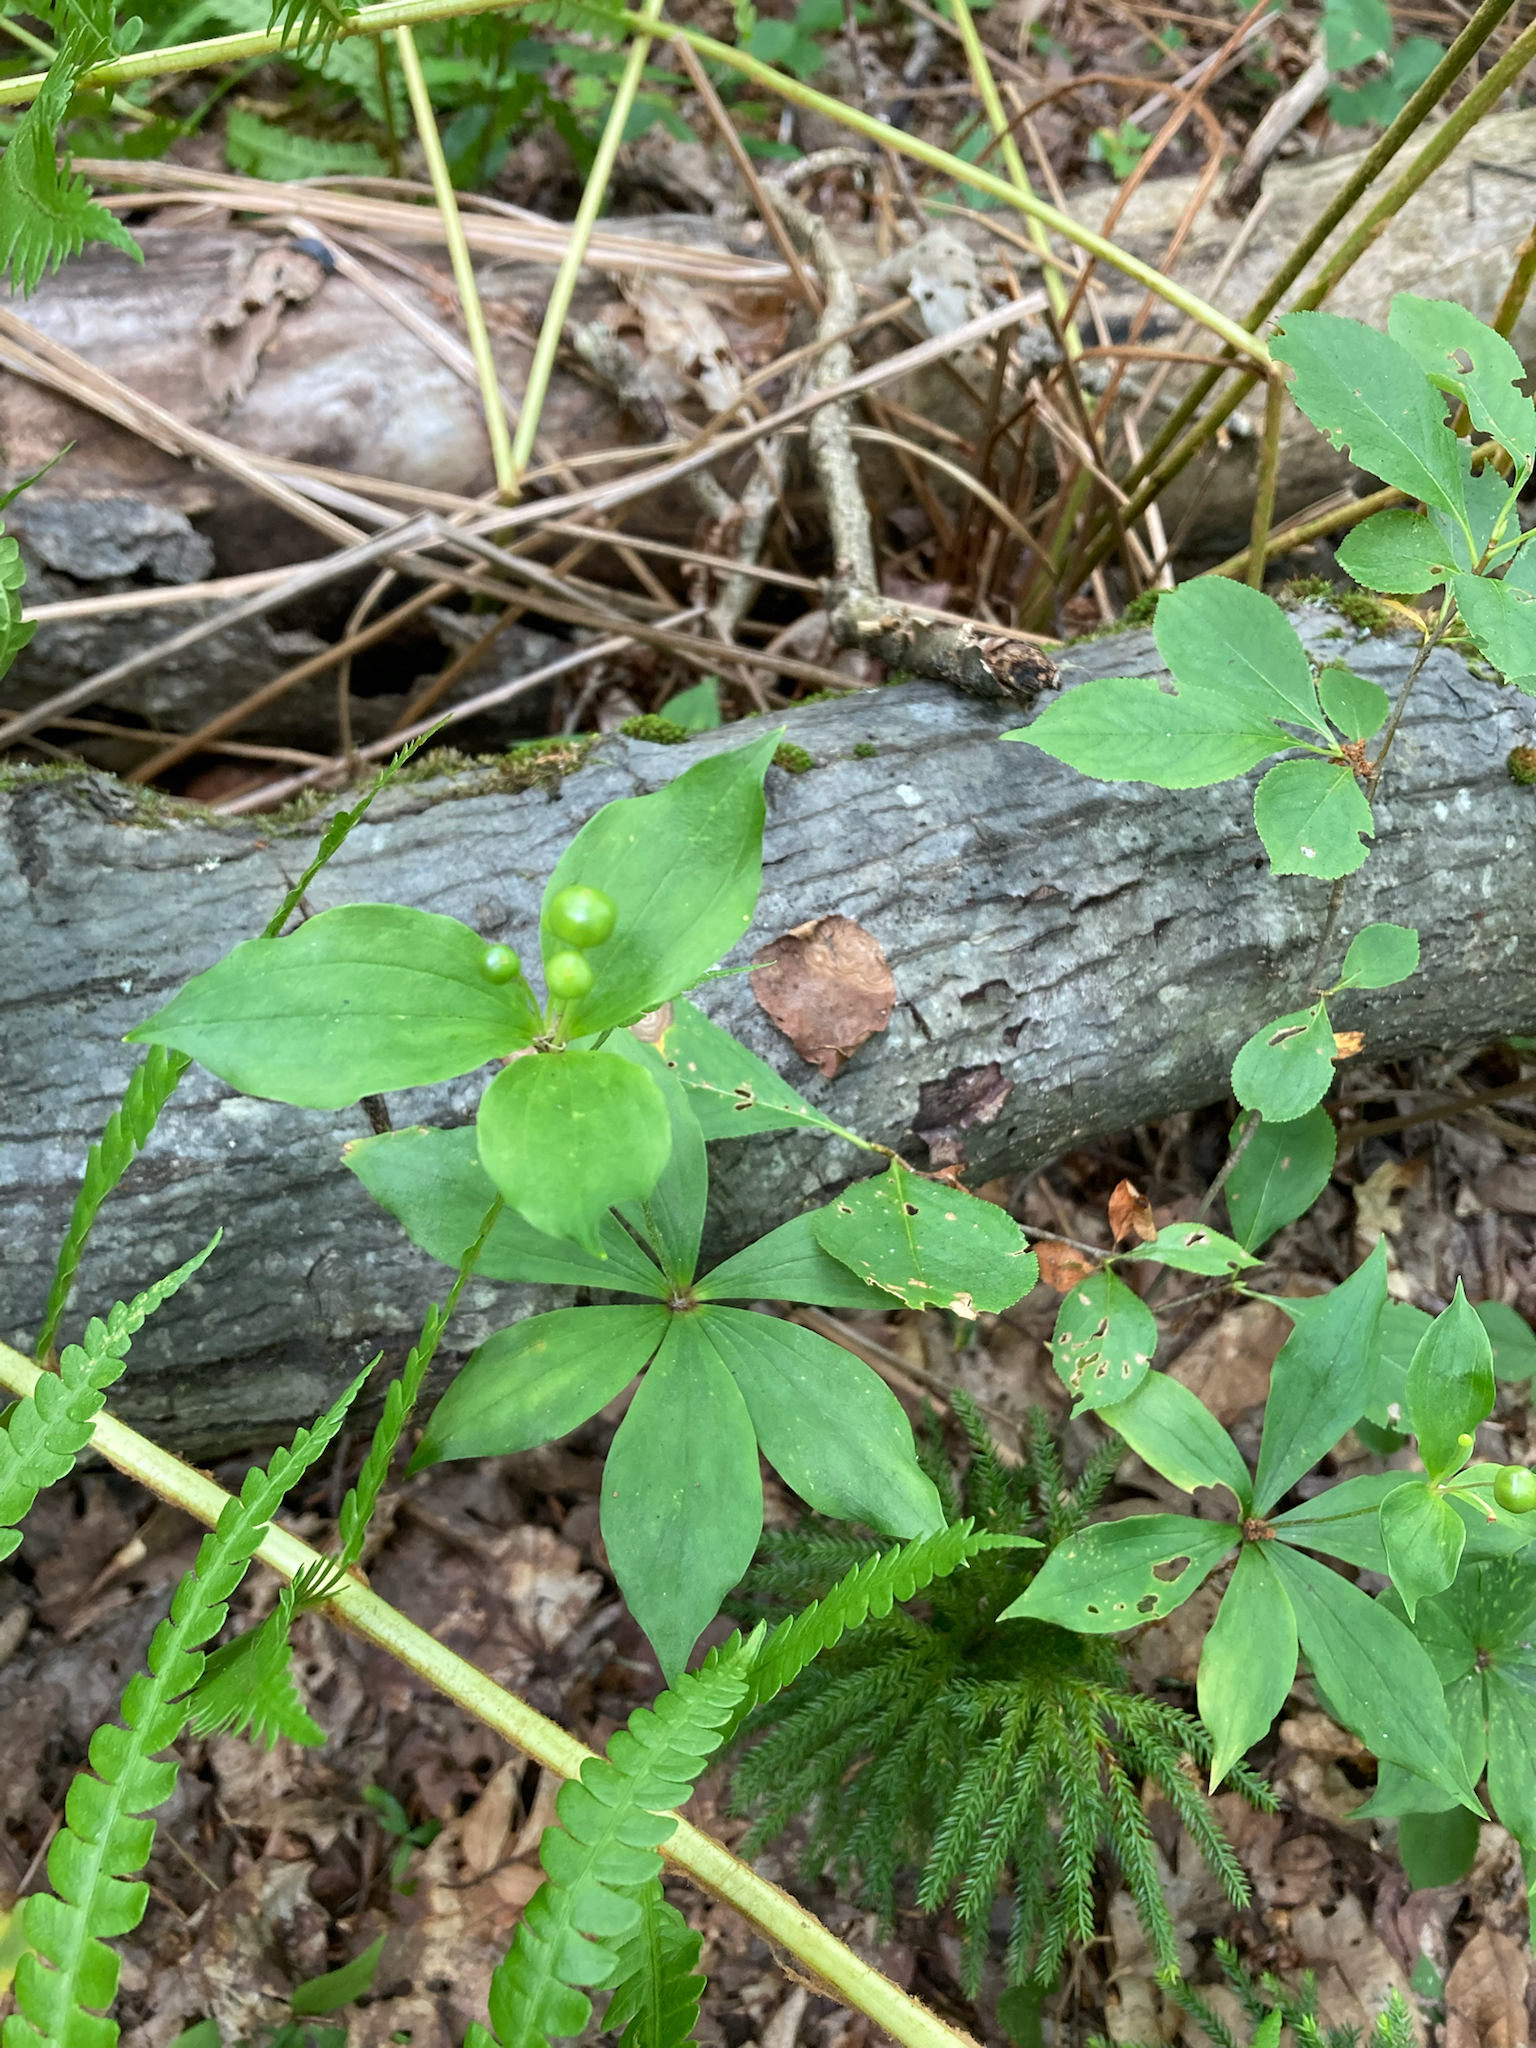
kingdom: Plantae
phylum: Tracheophyta
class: Liliopsida
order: Liliales
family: Liliaceae
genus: Medeola
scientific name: Medeola virginiana
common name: Indian cucumber-root
